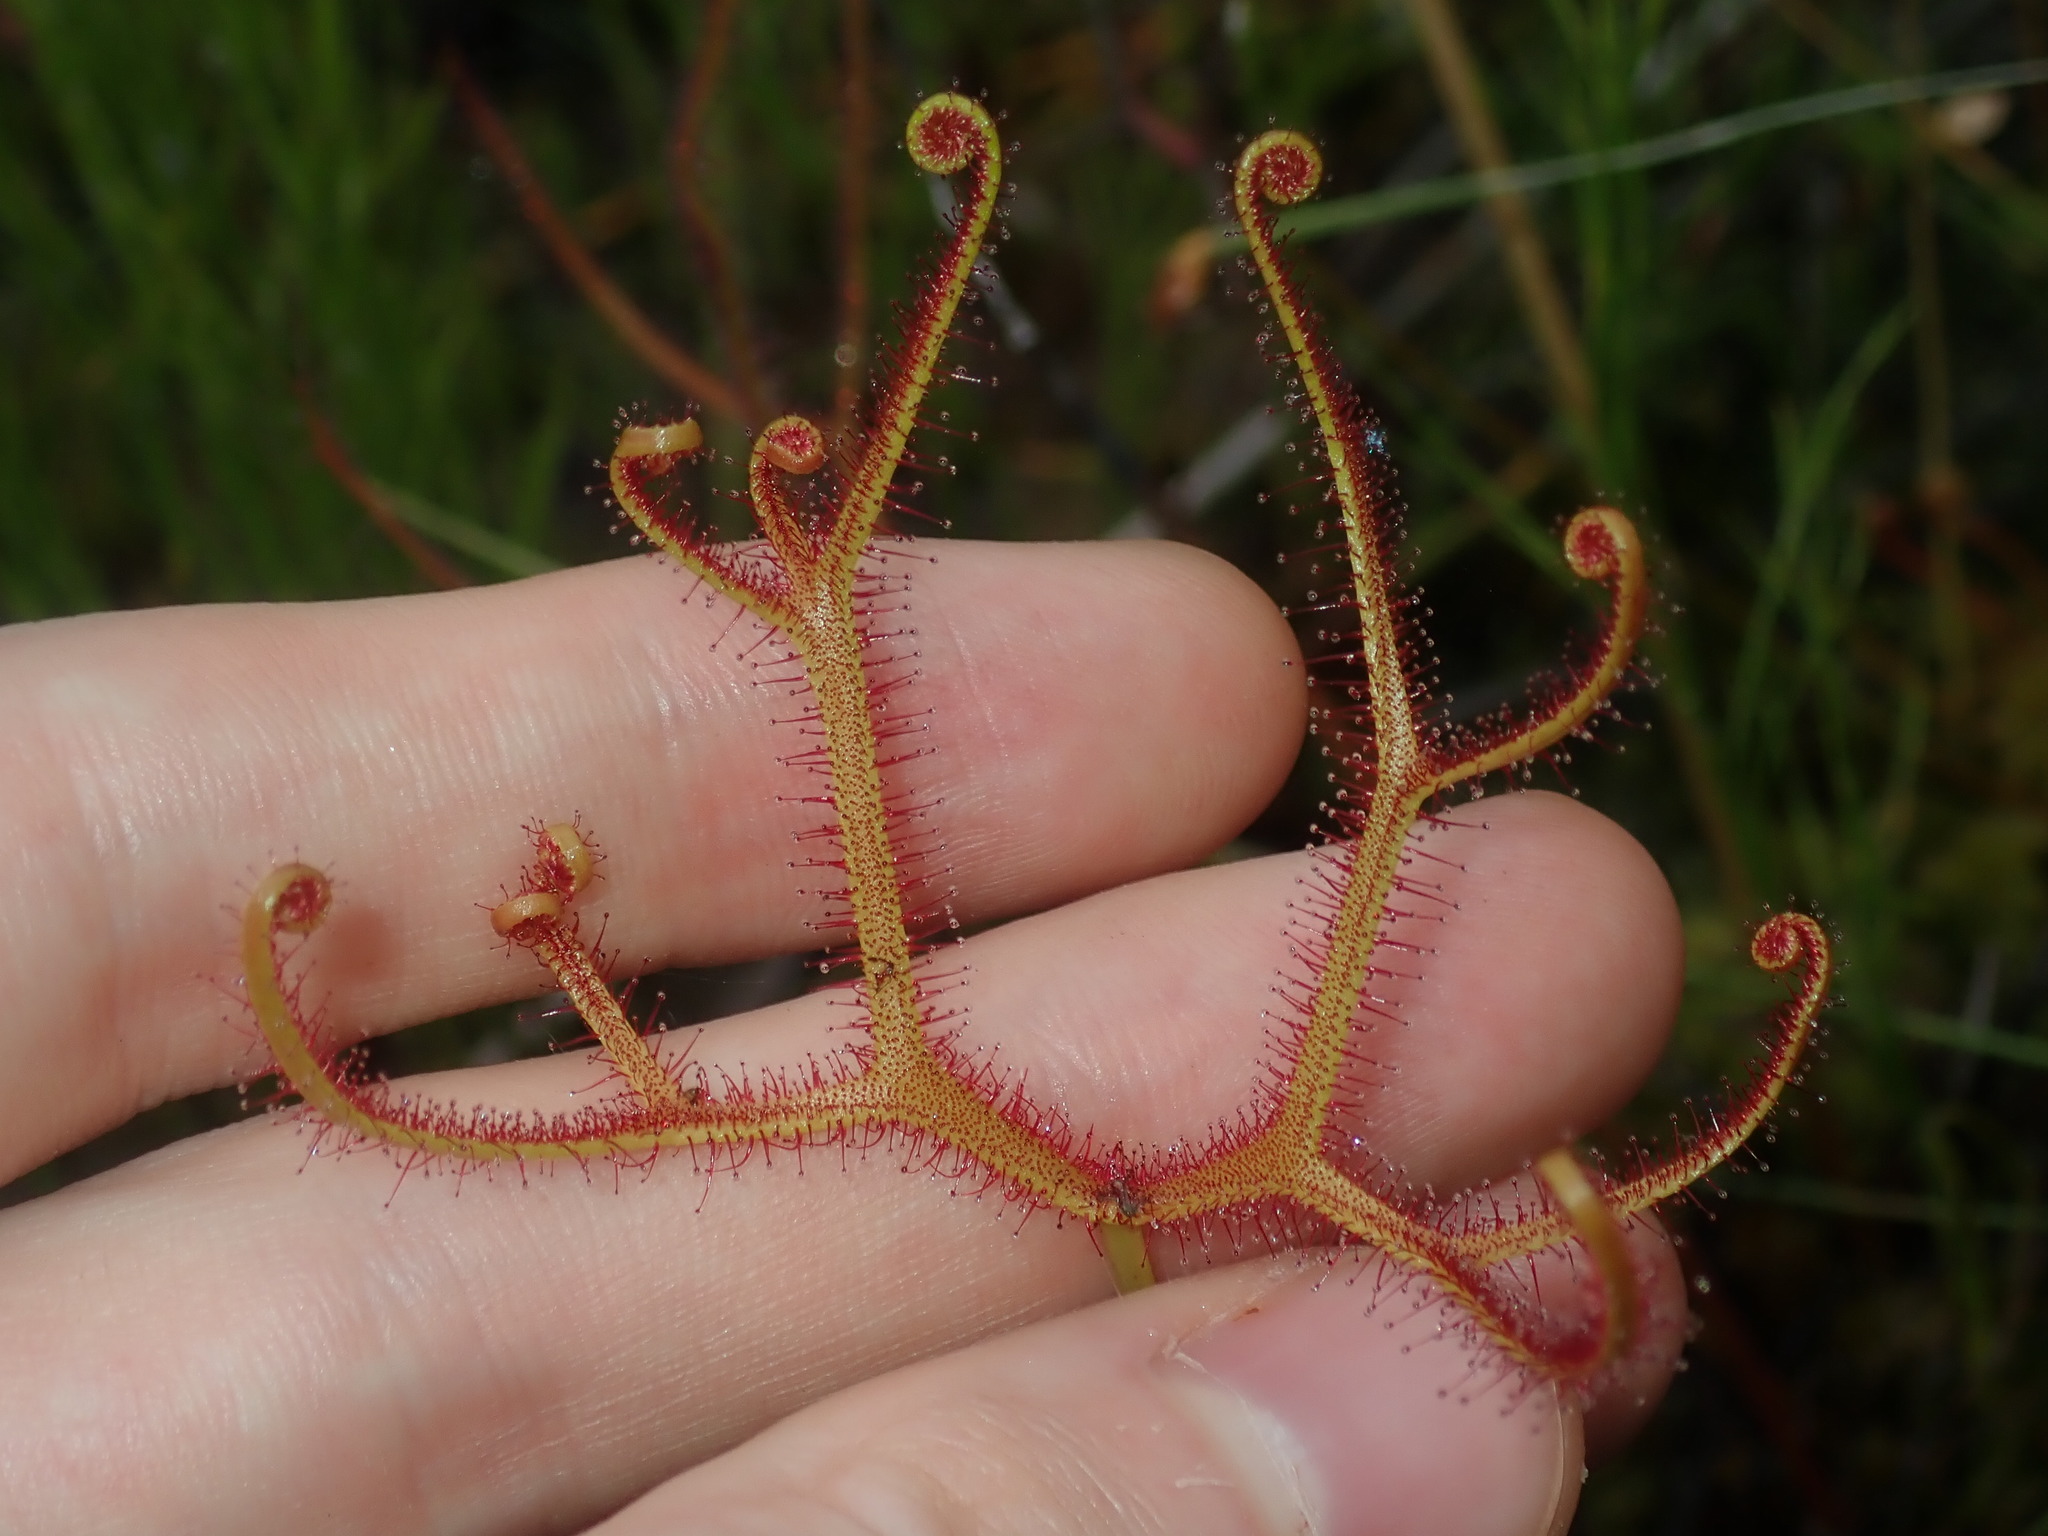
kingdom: Plantae
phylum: Tracheophyta
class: Magnoliopsida
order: Caryophyllales
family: Droseraceae
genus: Drosera
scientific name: Drosera binata
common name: Forked sundew
